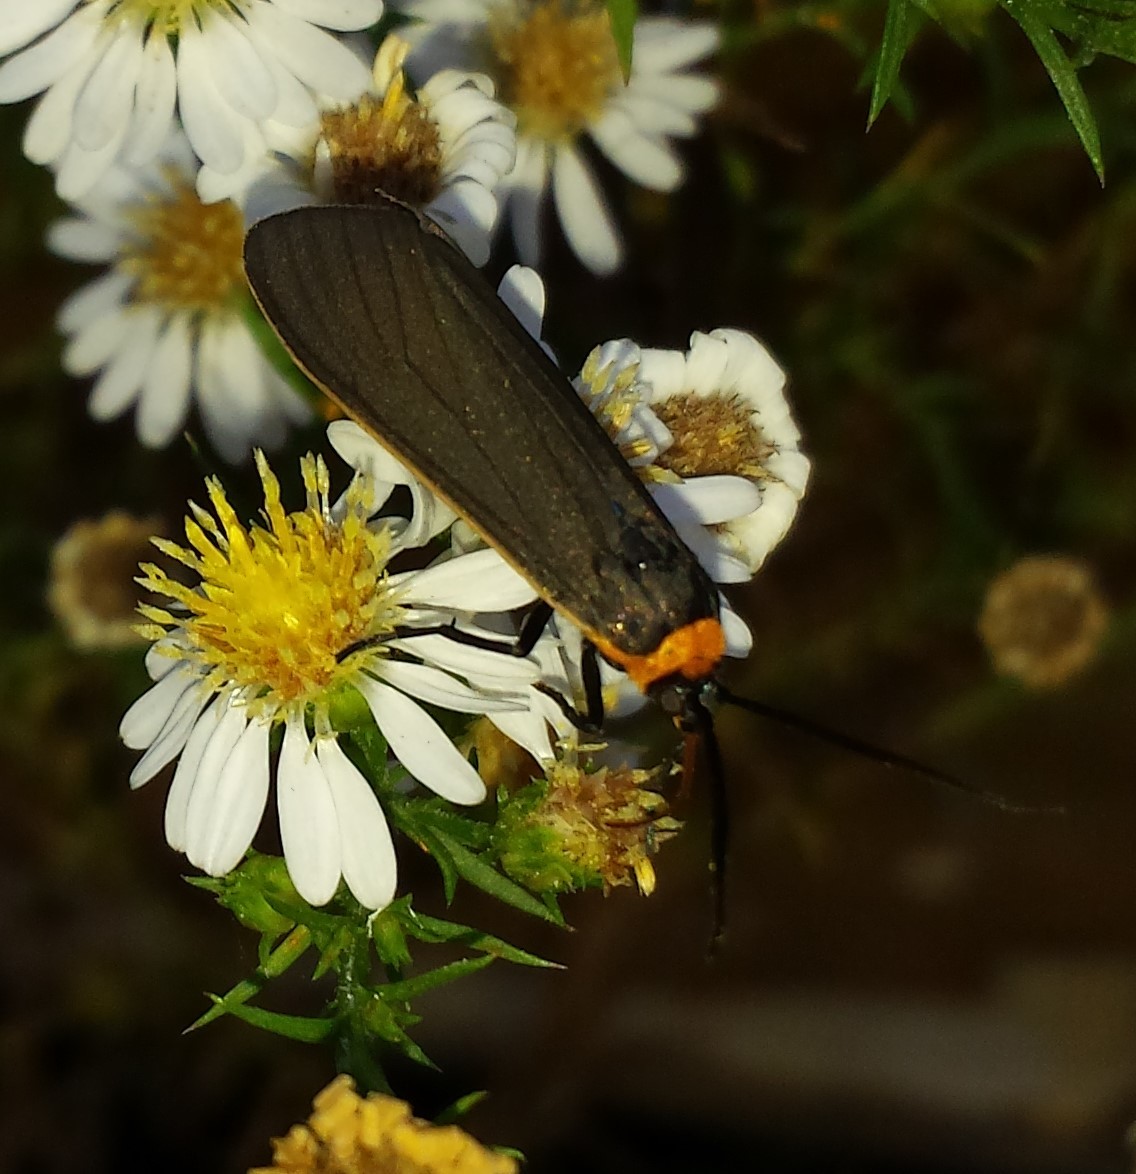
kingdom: Animalia
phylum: Arthropoda
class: Insecta
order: Lepidoptera
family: Erebidae
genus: Cisseps
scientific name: Cisseps fulvicollis
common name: Yellow-collared scape moth
